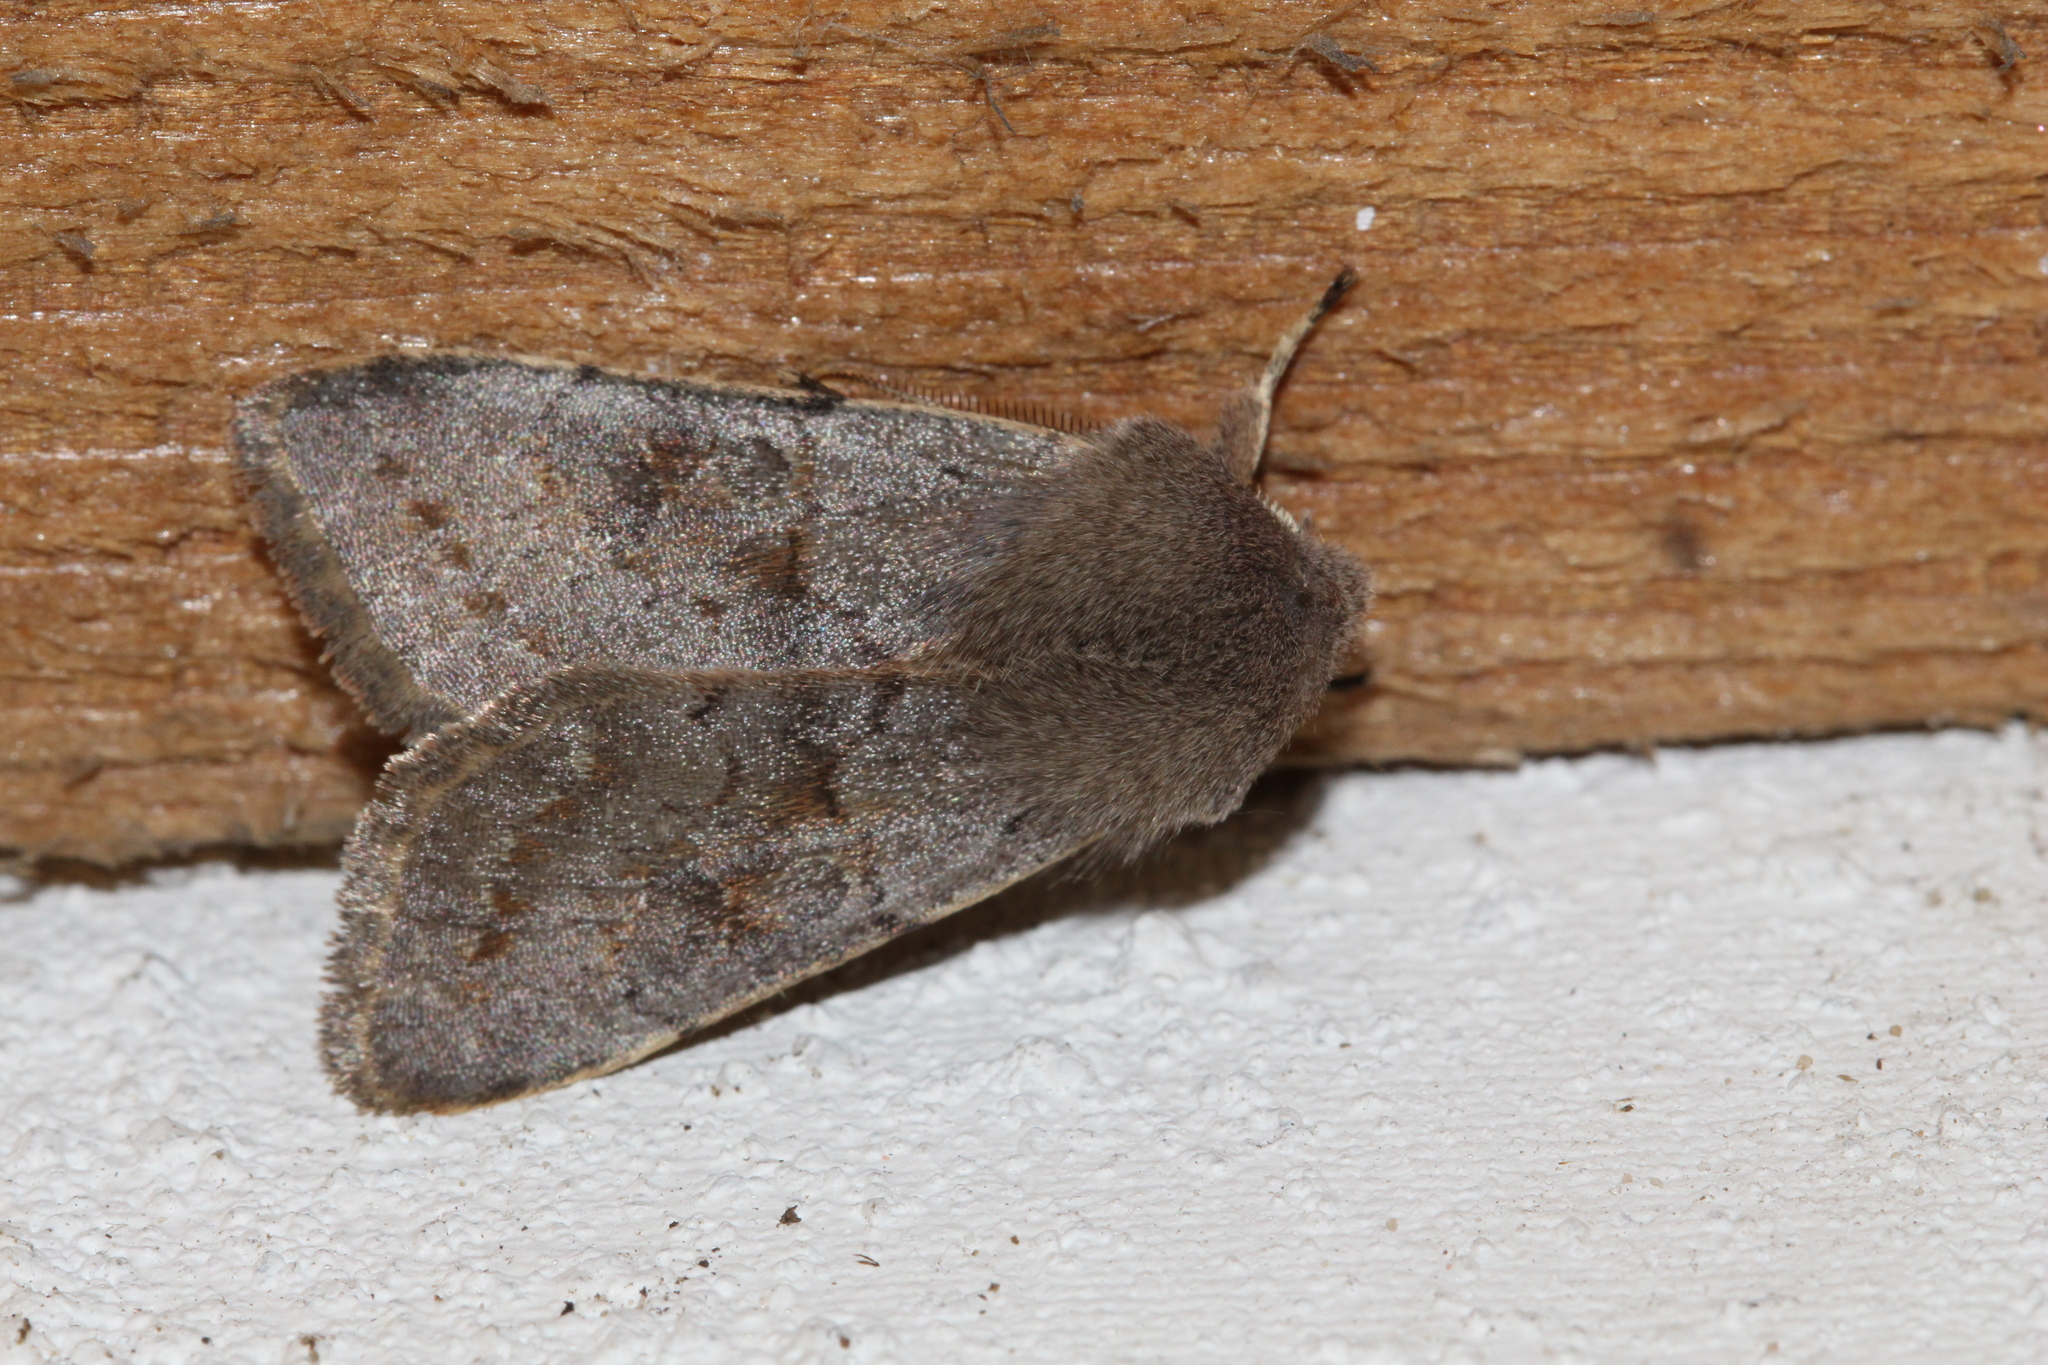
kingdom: Animalia
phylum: Arthropoda
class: Insecta
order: Lepidoptera
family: Noctuidae
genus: Orthosia
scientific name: Orthosia populeti
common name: Lead-coloured drab
